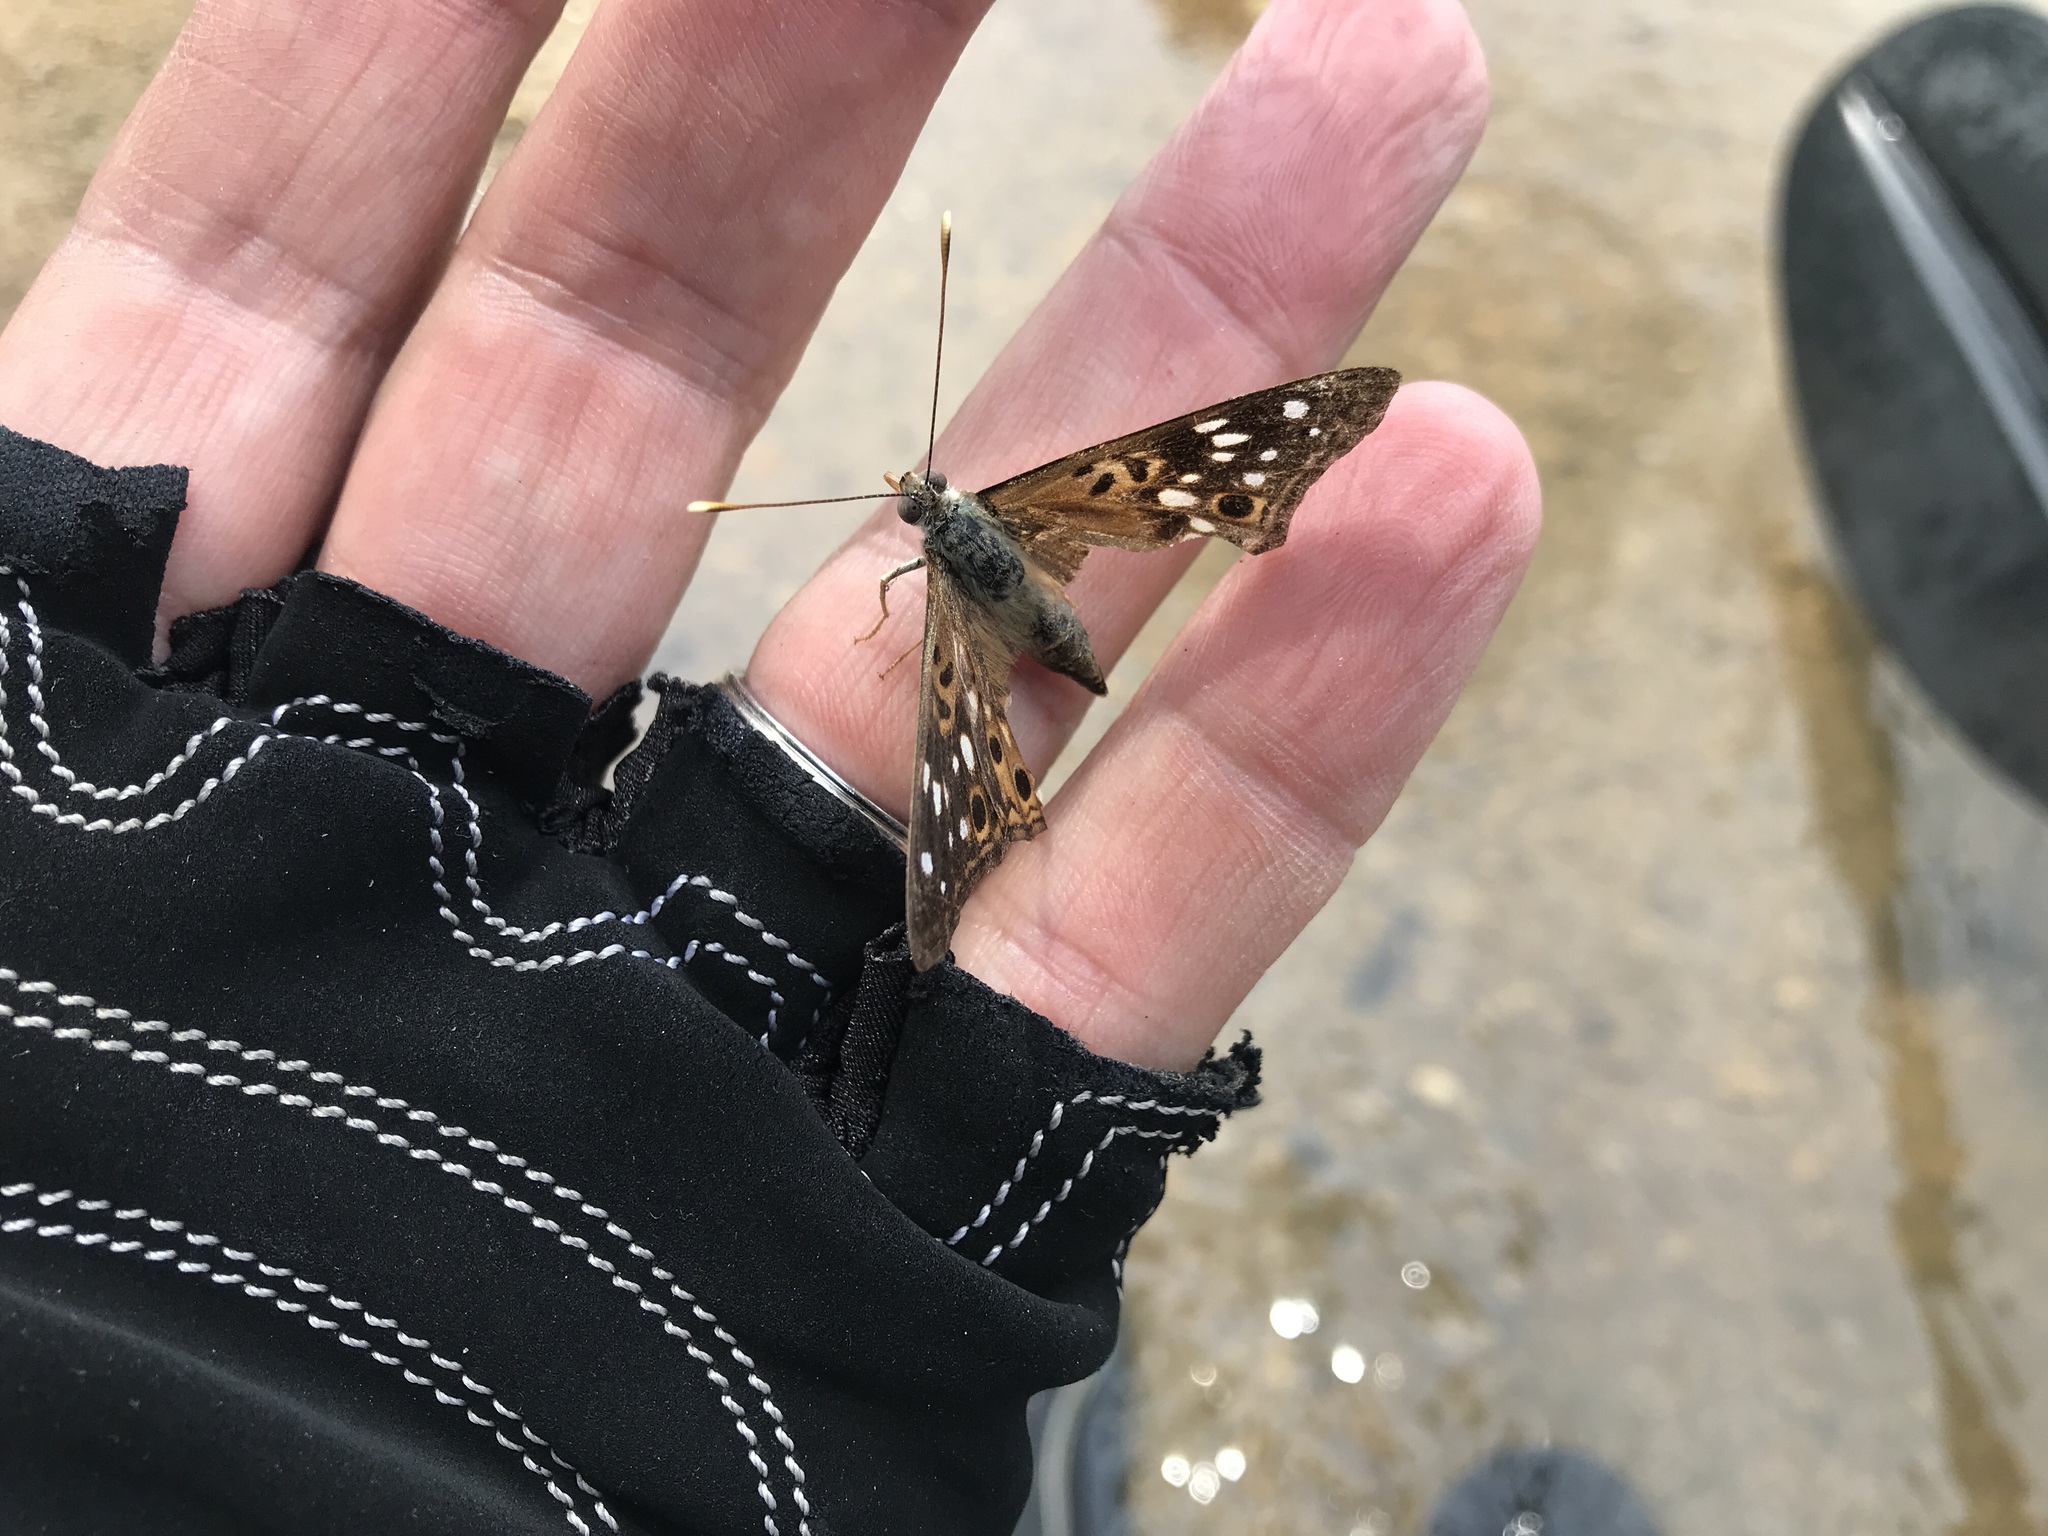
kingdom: Animalia
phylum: Arthropoda
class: Insecta
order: Lepidoptera
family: Nymphalidae
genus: Asterocampa
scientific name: Asterocampa celtis
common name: Hackberry emperor
